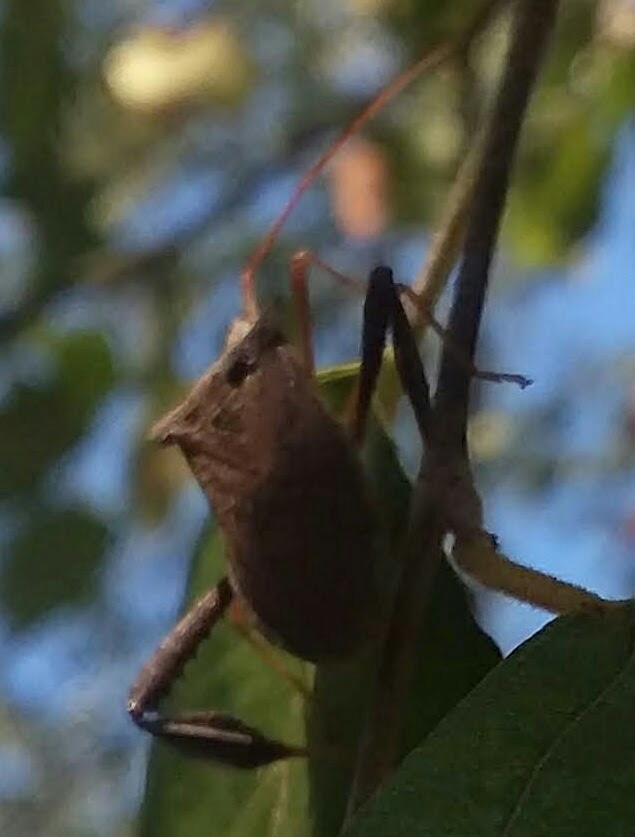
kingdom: Animalia
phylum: Arthropoda
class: Insecta
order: Hemiptera
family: Coreidae
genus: Leptoglossus
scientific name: Leptoglossus fulvicornis
